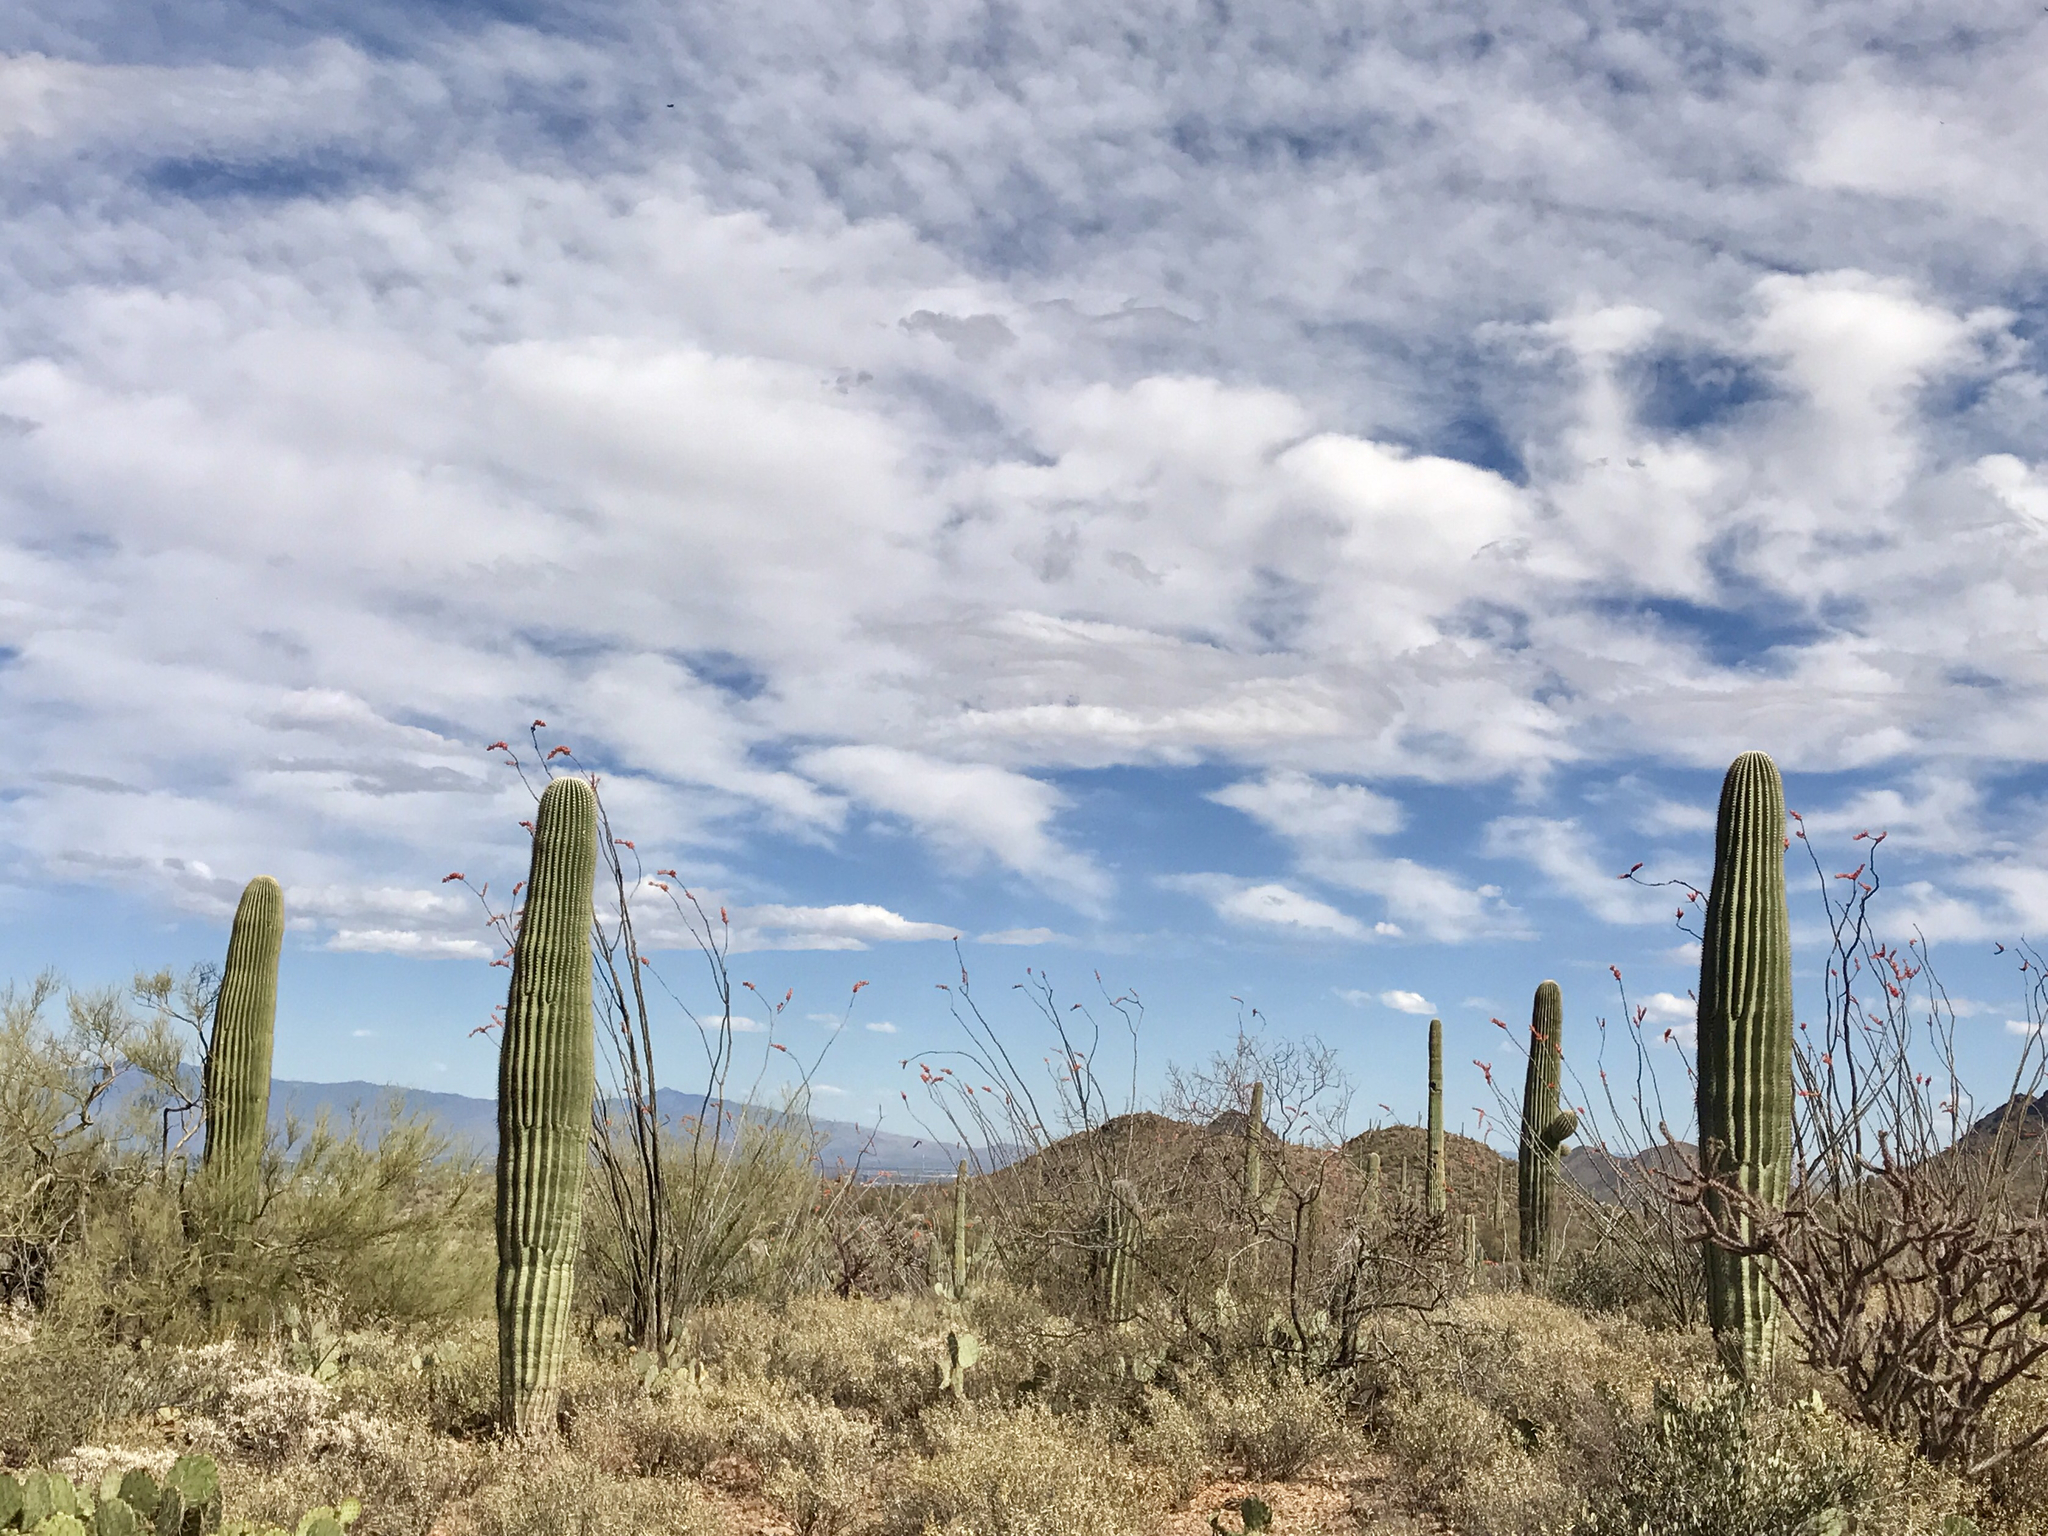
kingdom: Plantae
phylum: Tracheophyta
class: Magnoliopsida
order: Caryophyllales
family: Cactaceae
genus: Carnegiea
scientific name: Carnegiea gigantea
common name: Saguaro
